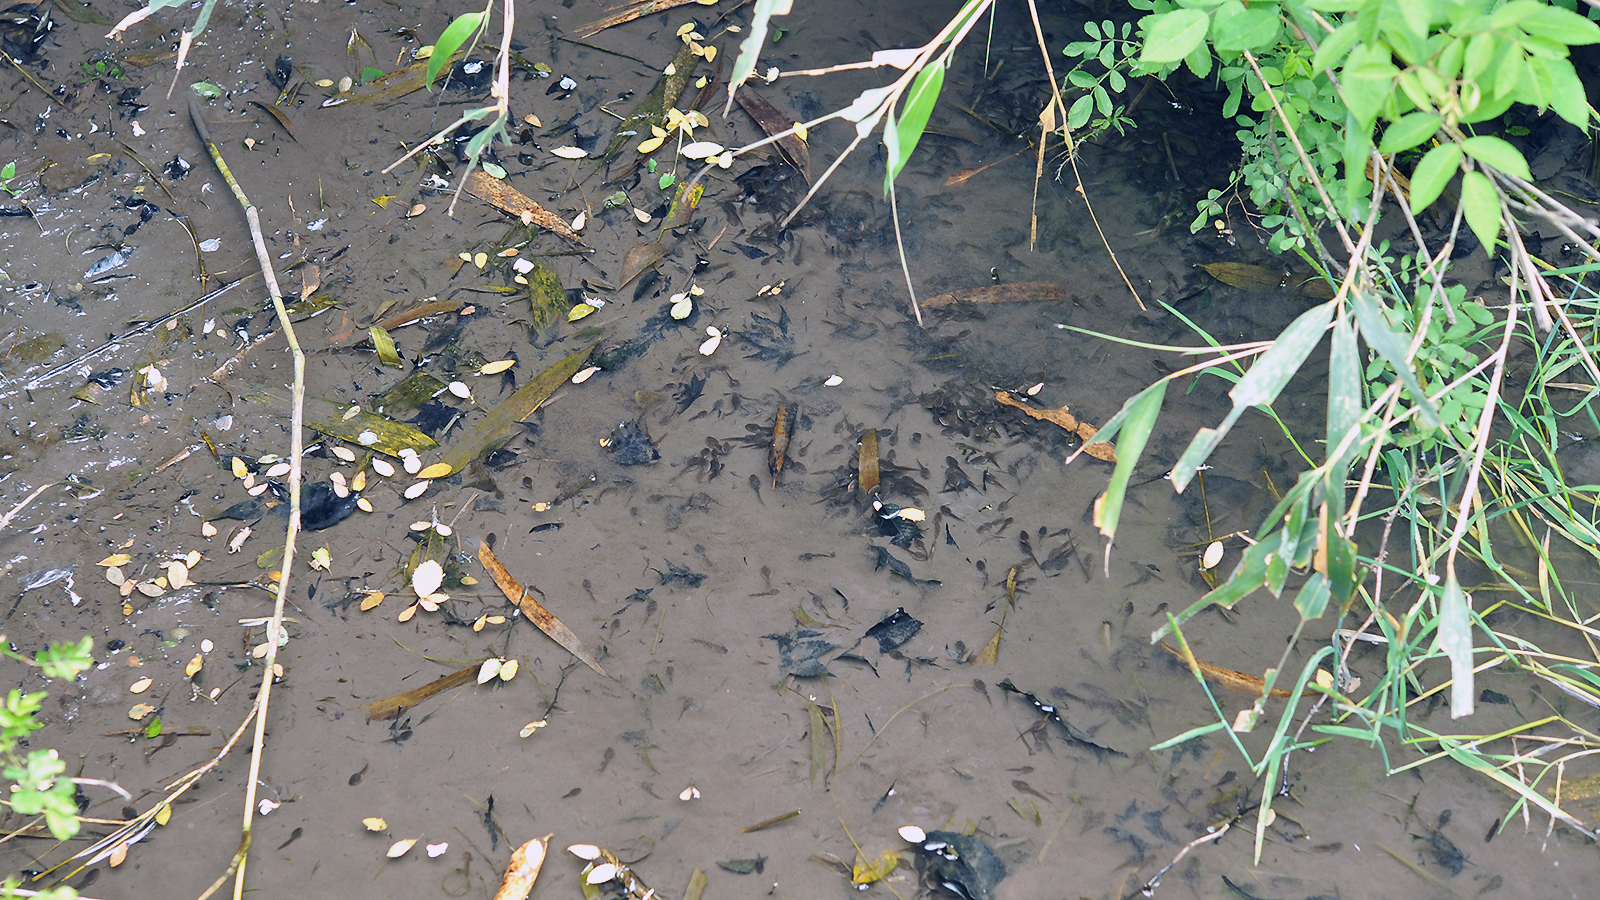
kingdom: Animalia
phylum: Chordata
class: Amphibia
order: Anura
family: Ranidae
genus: Rana
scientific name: Rana uenoi
